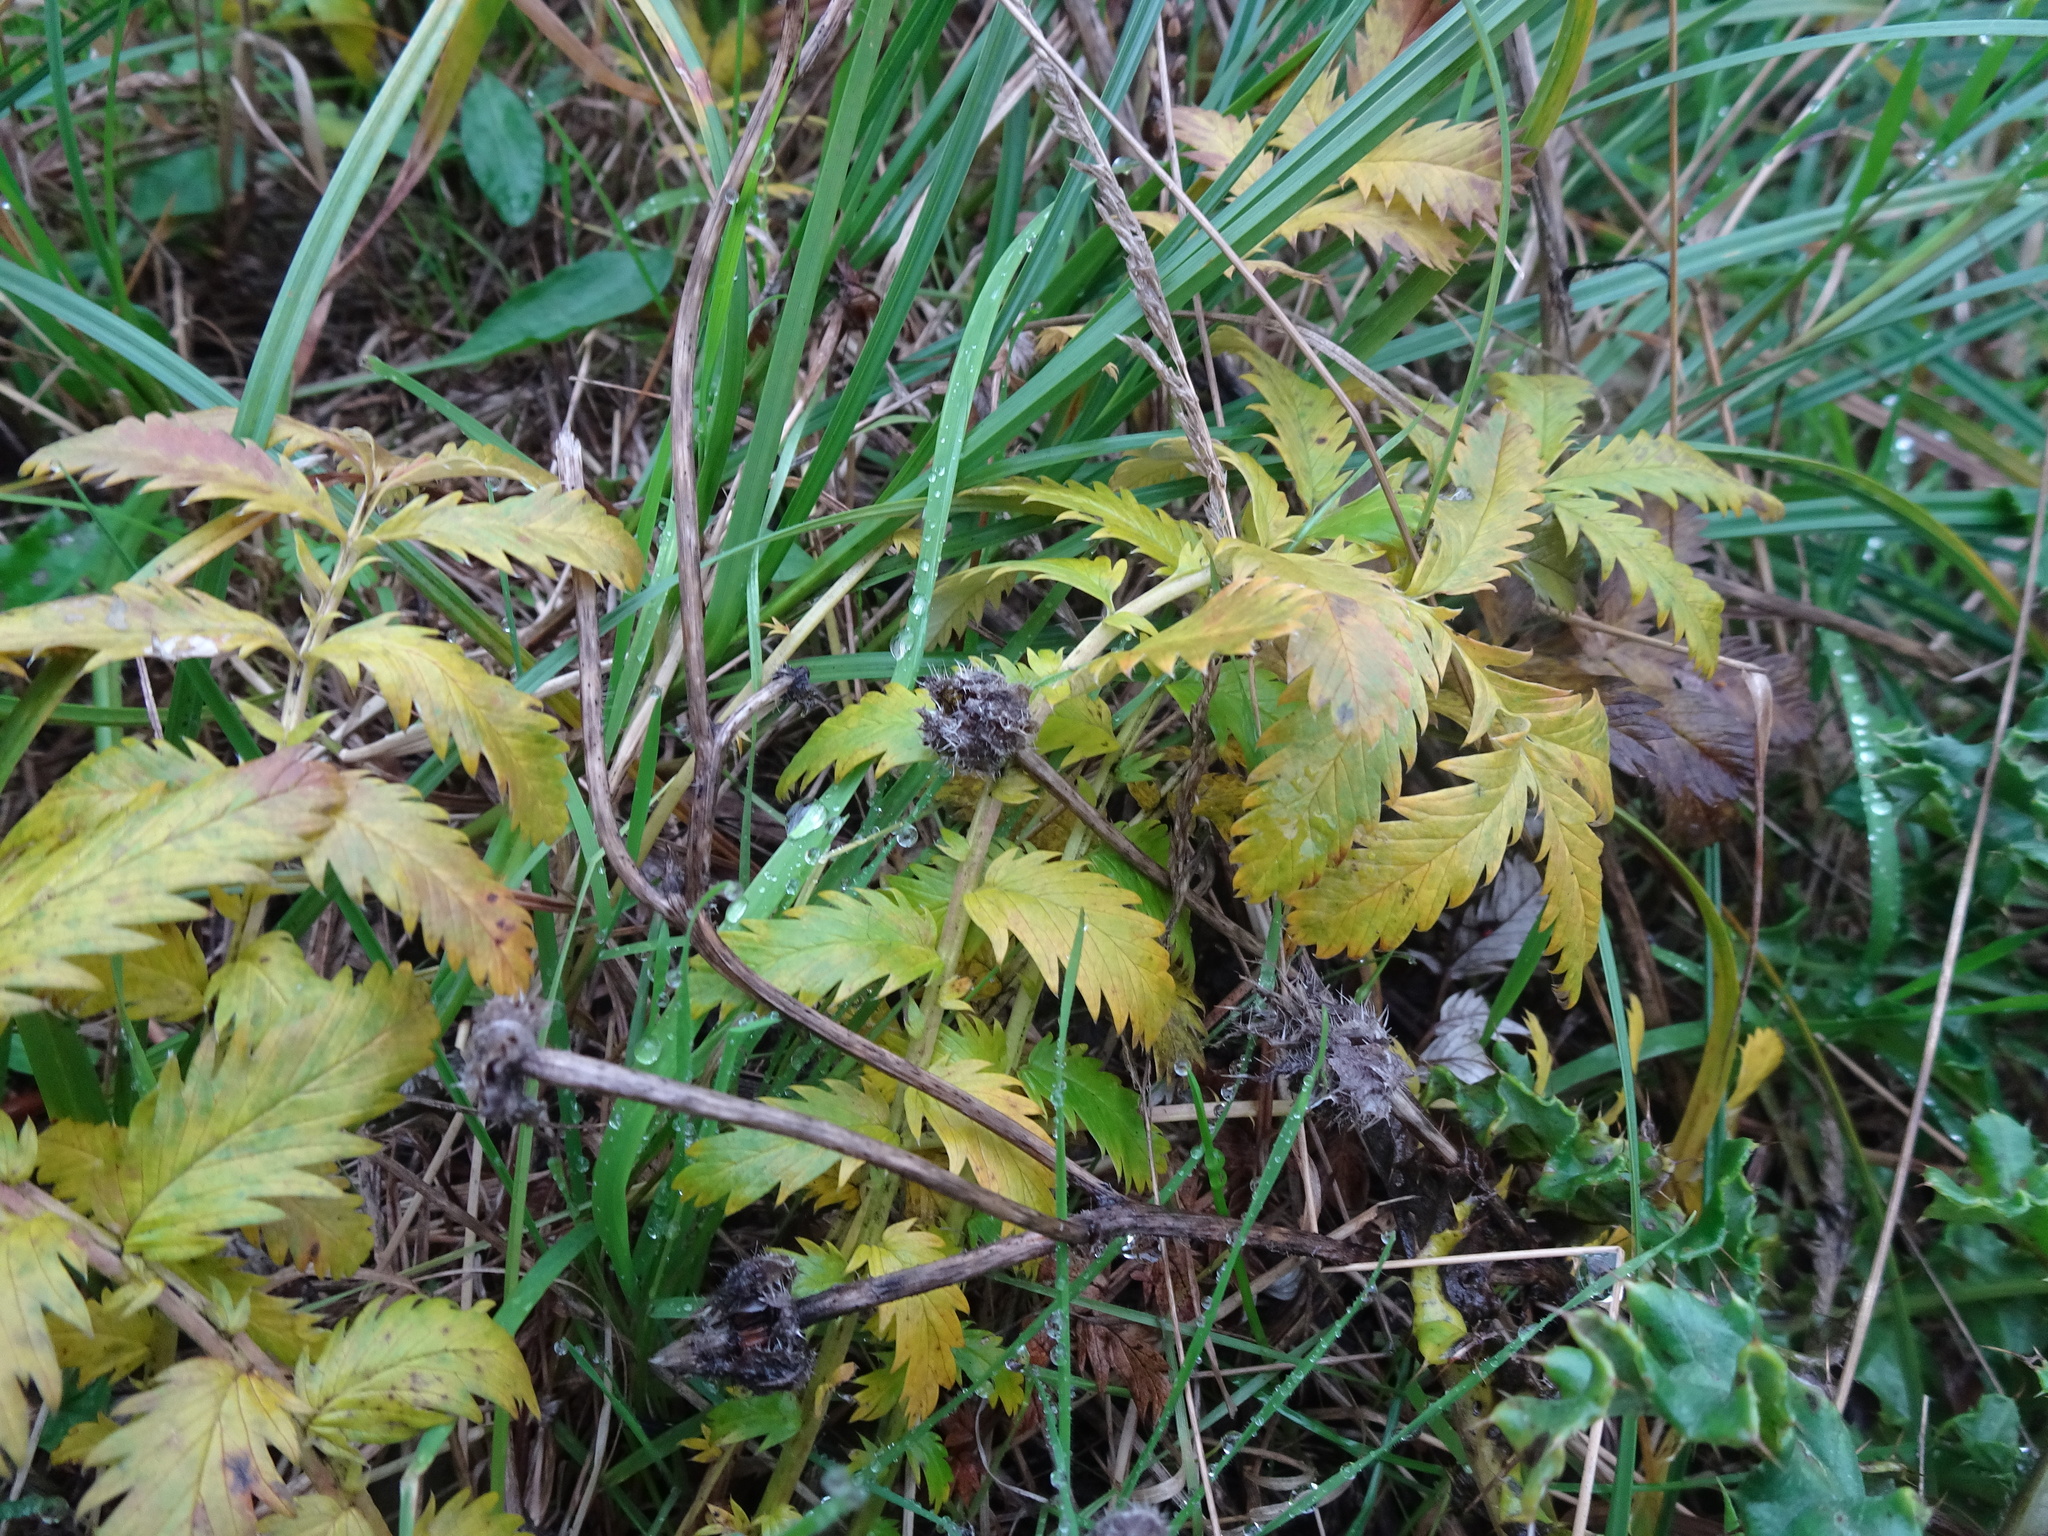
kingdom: Plantae
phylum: Tracheophyta
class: Magnoliopsida
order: Rosales
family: Rosaceae
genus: Argentina
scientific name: Argentina anserina
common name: Common silverweed
